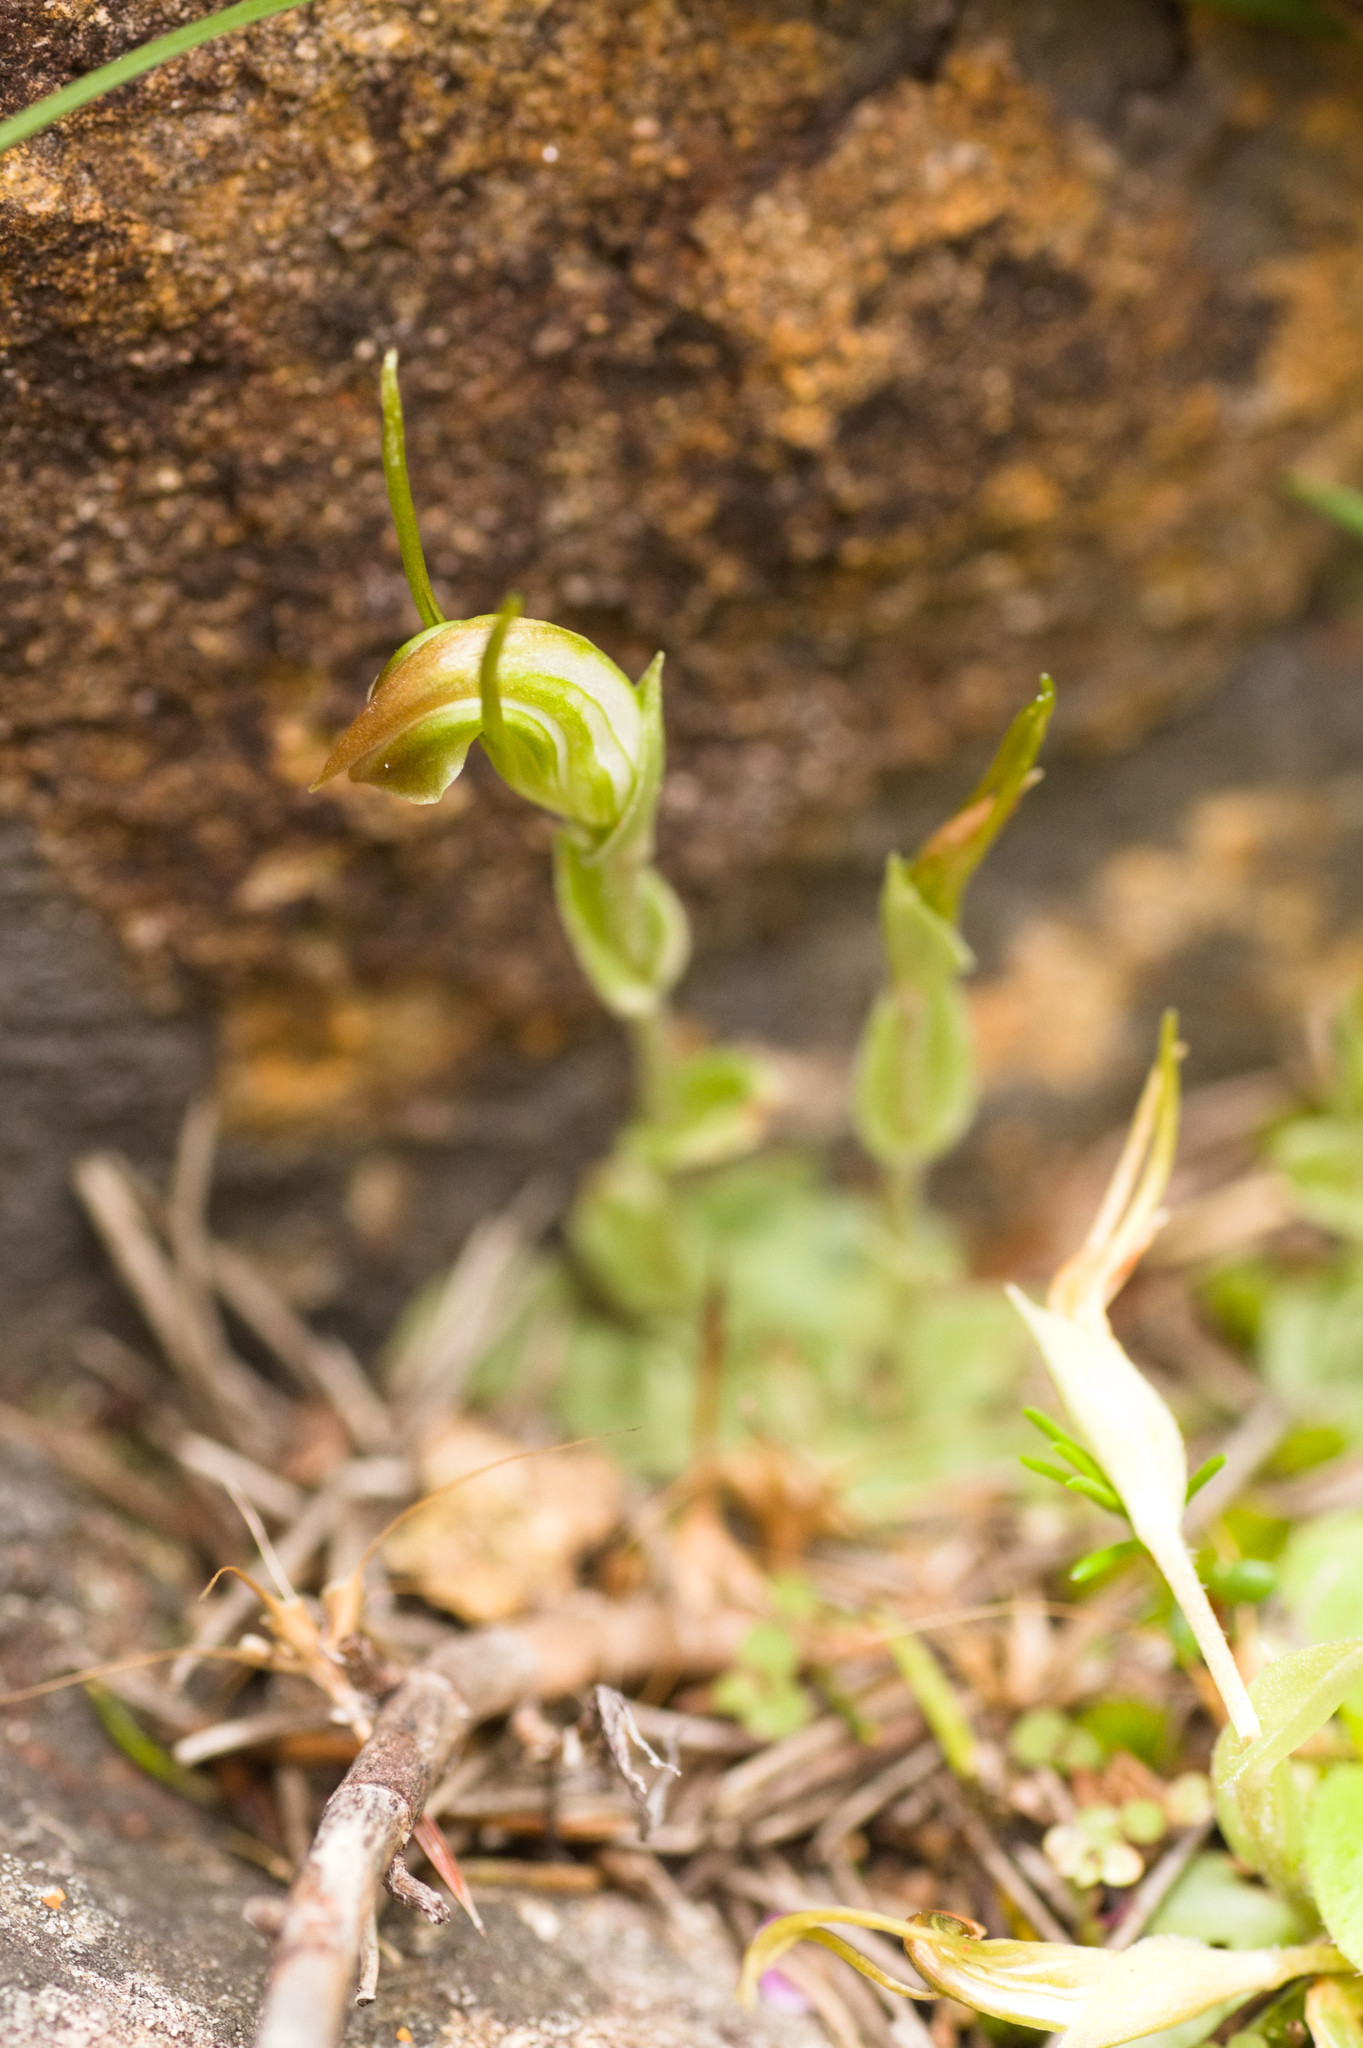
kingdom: Plantae
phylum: Tracheophyta
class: Liliopsida
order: Asparagales
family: Orchidaceae
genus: Pterostylis
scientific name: Pterostylis erubescens
